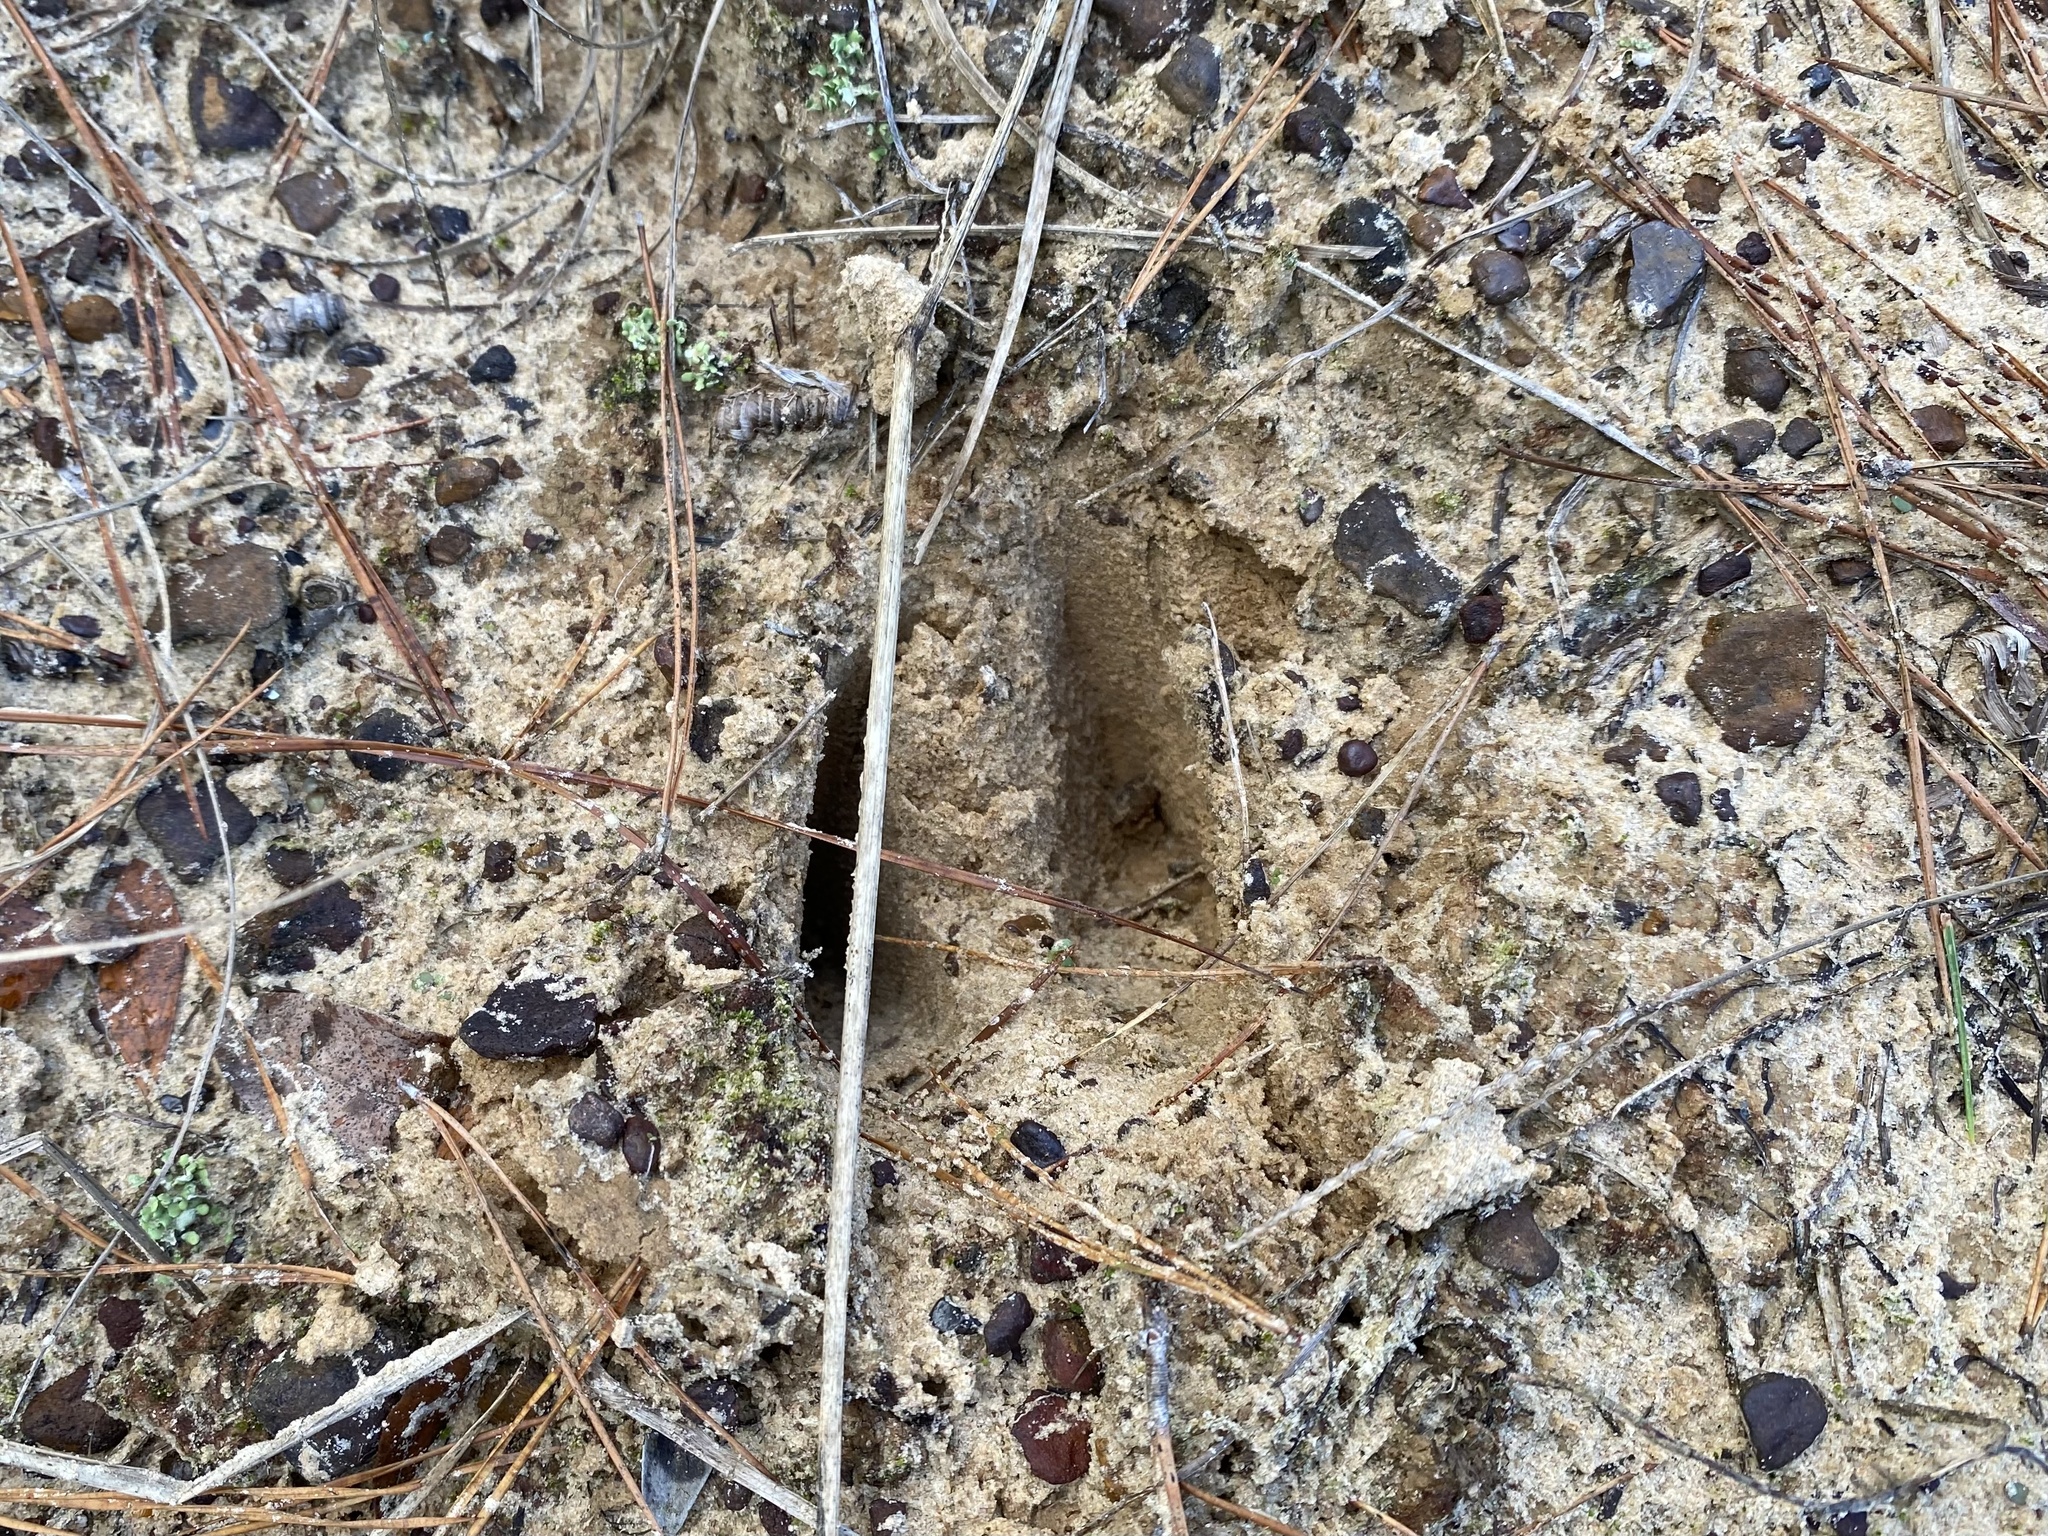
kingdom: Animalia
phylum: Chordata
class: Mammalia
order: Artiodactyla
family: Cervidae
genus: Odocoileus
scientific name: Odocoileus virginianus
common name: White-tailed deer
